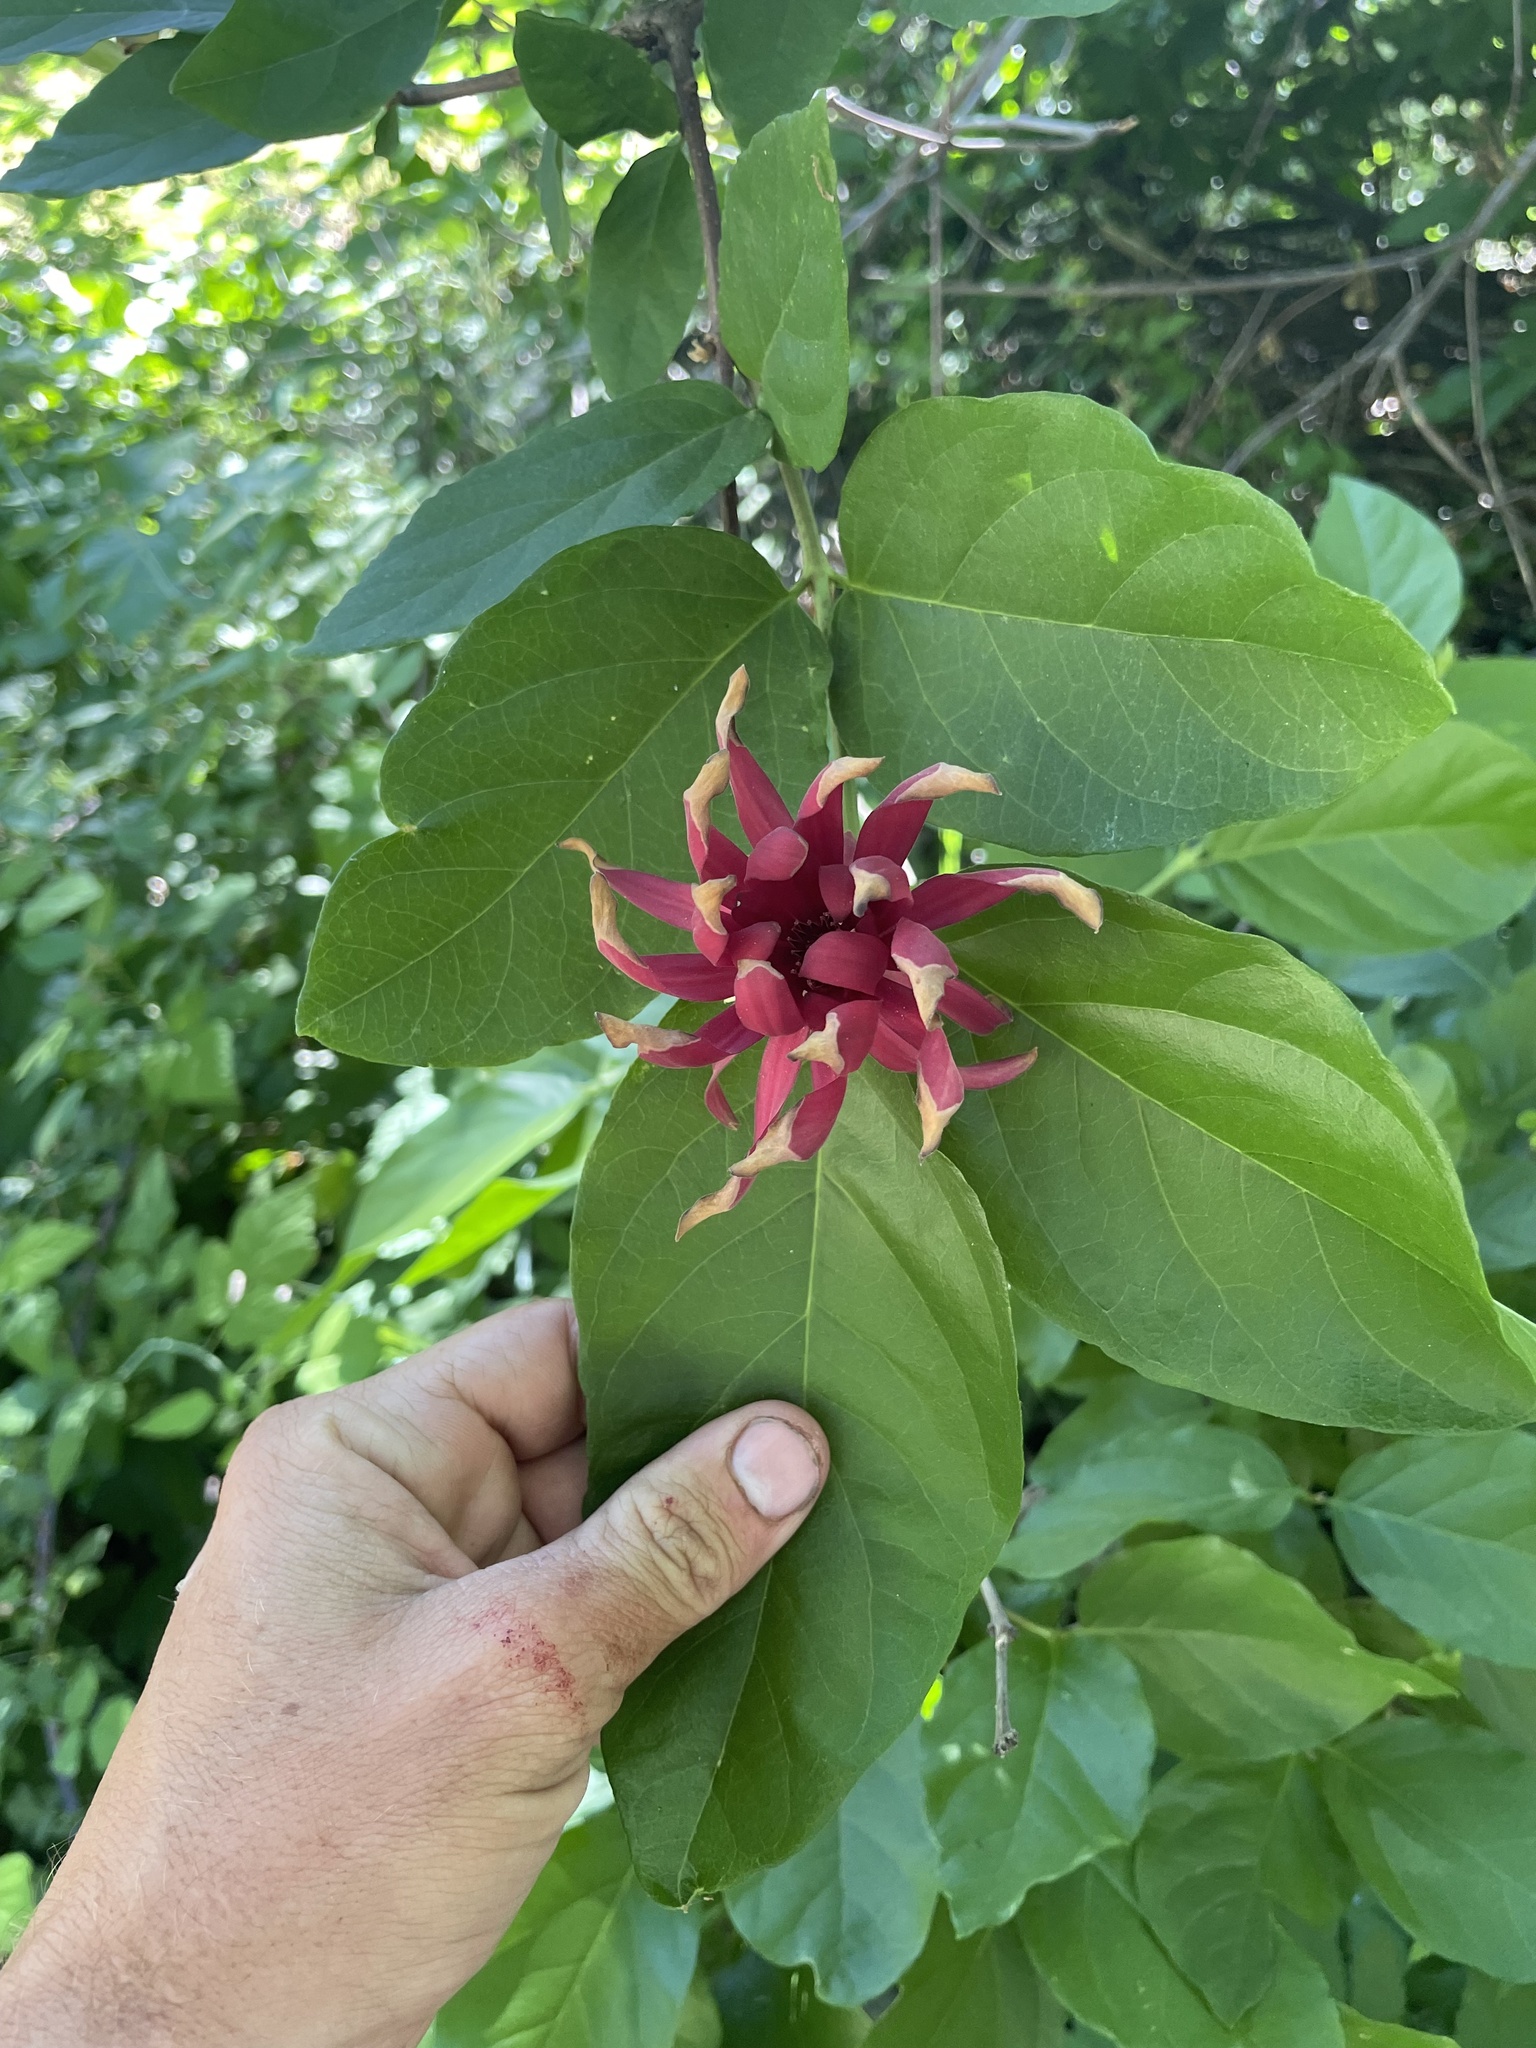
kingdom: Plantae
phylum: Tracheophyta
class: Magnoliopsida
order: Laurales
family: Calycanthaceae
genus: Calycanthus
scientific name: Calycanthus occidentalis
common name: California spicebush
